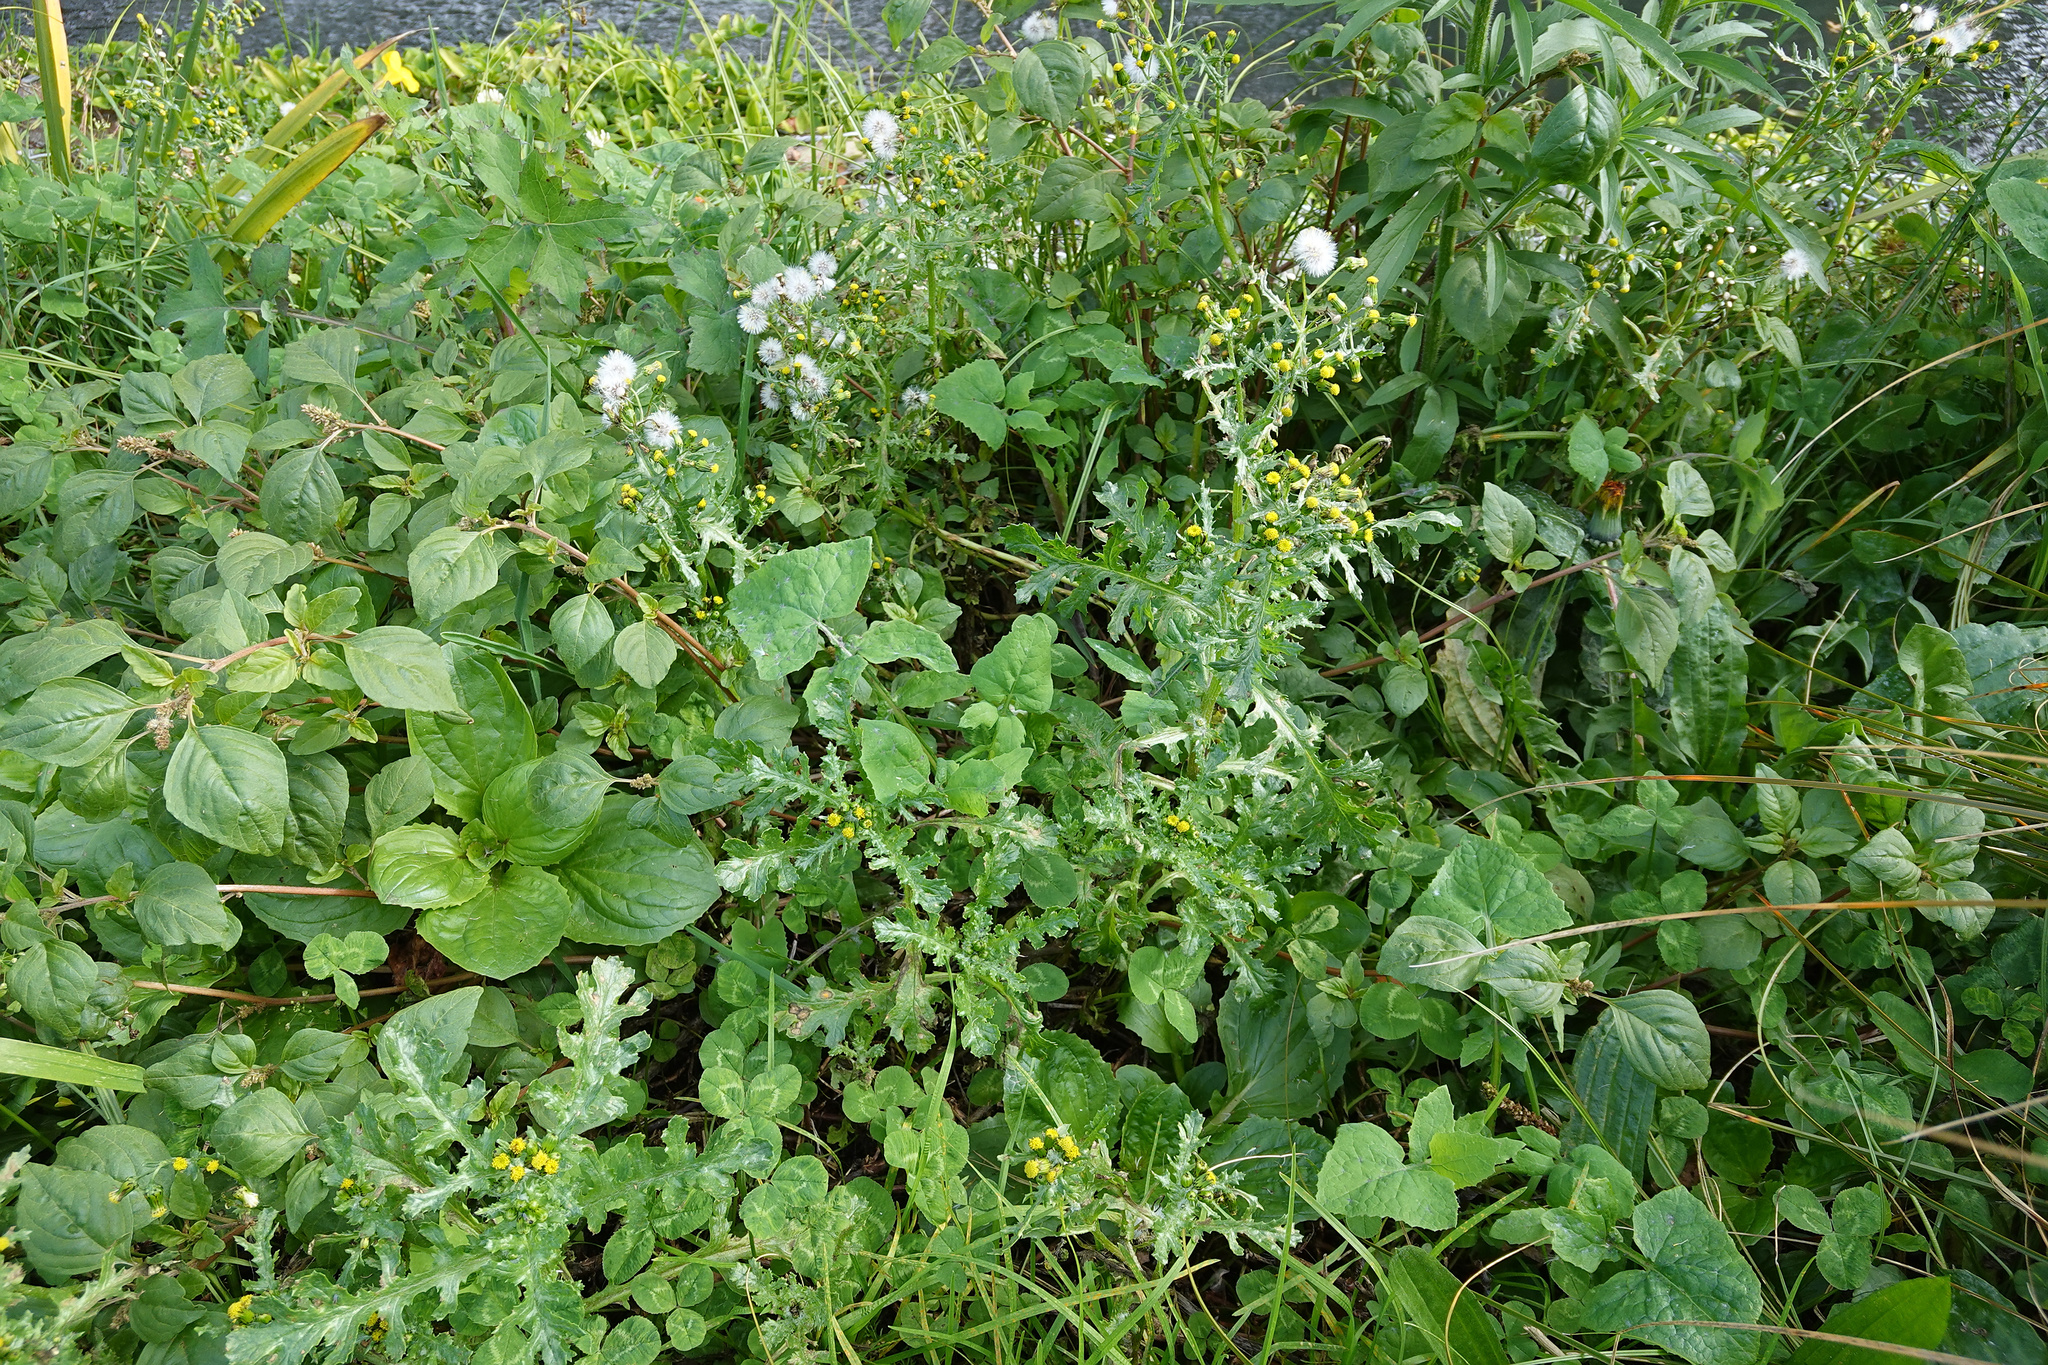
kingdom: Plantae
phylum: Tracheophyta
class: Magnoliopsida
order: Asterales
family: Asteraceae
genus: Senecio
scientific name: Senecio vulgaris
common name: Old-man-in-the-spring
